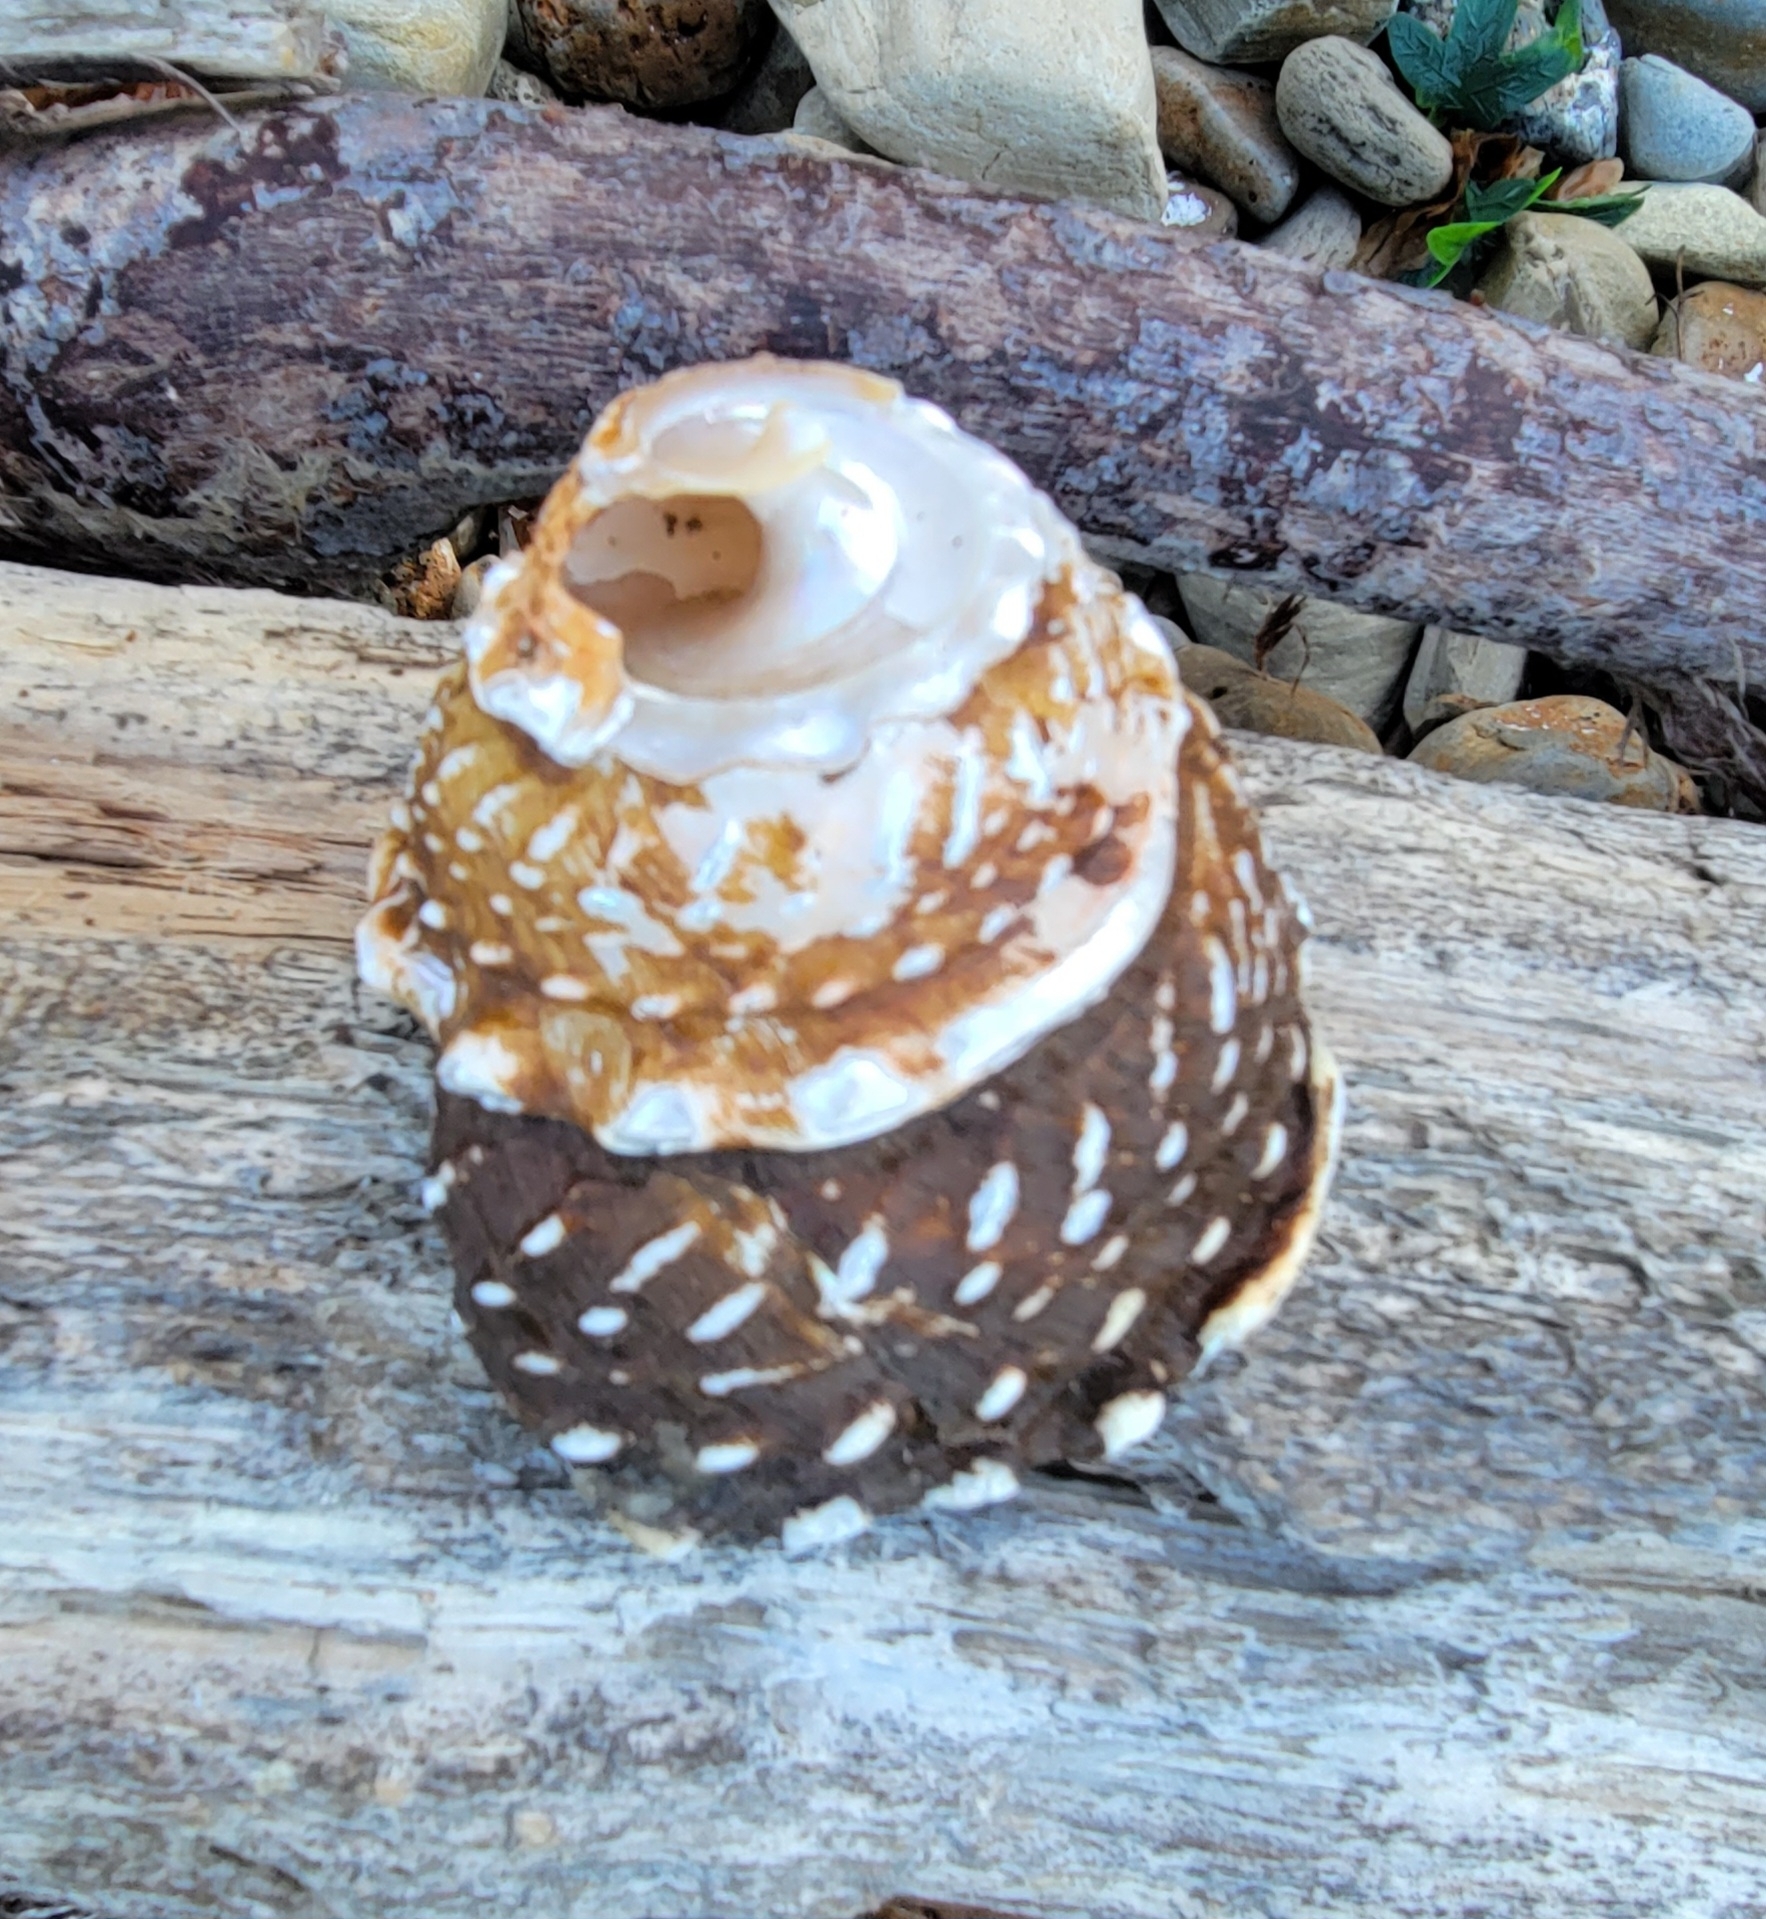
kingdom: Animalia
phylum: Mollusca
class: Gastropoda
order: Trochida
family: Turbinidae
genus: Megastraea
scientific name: Megastraea undosa
